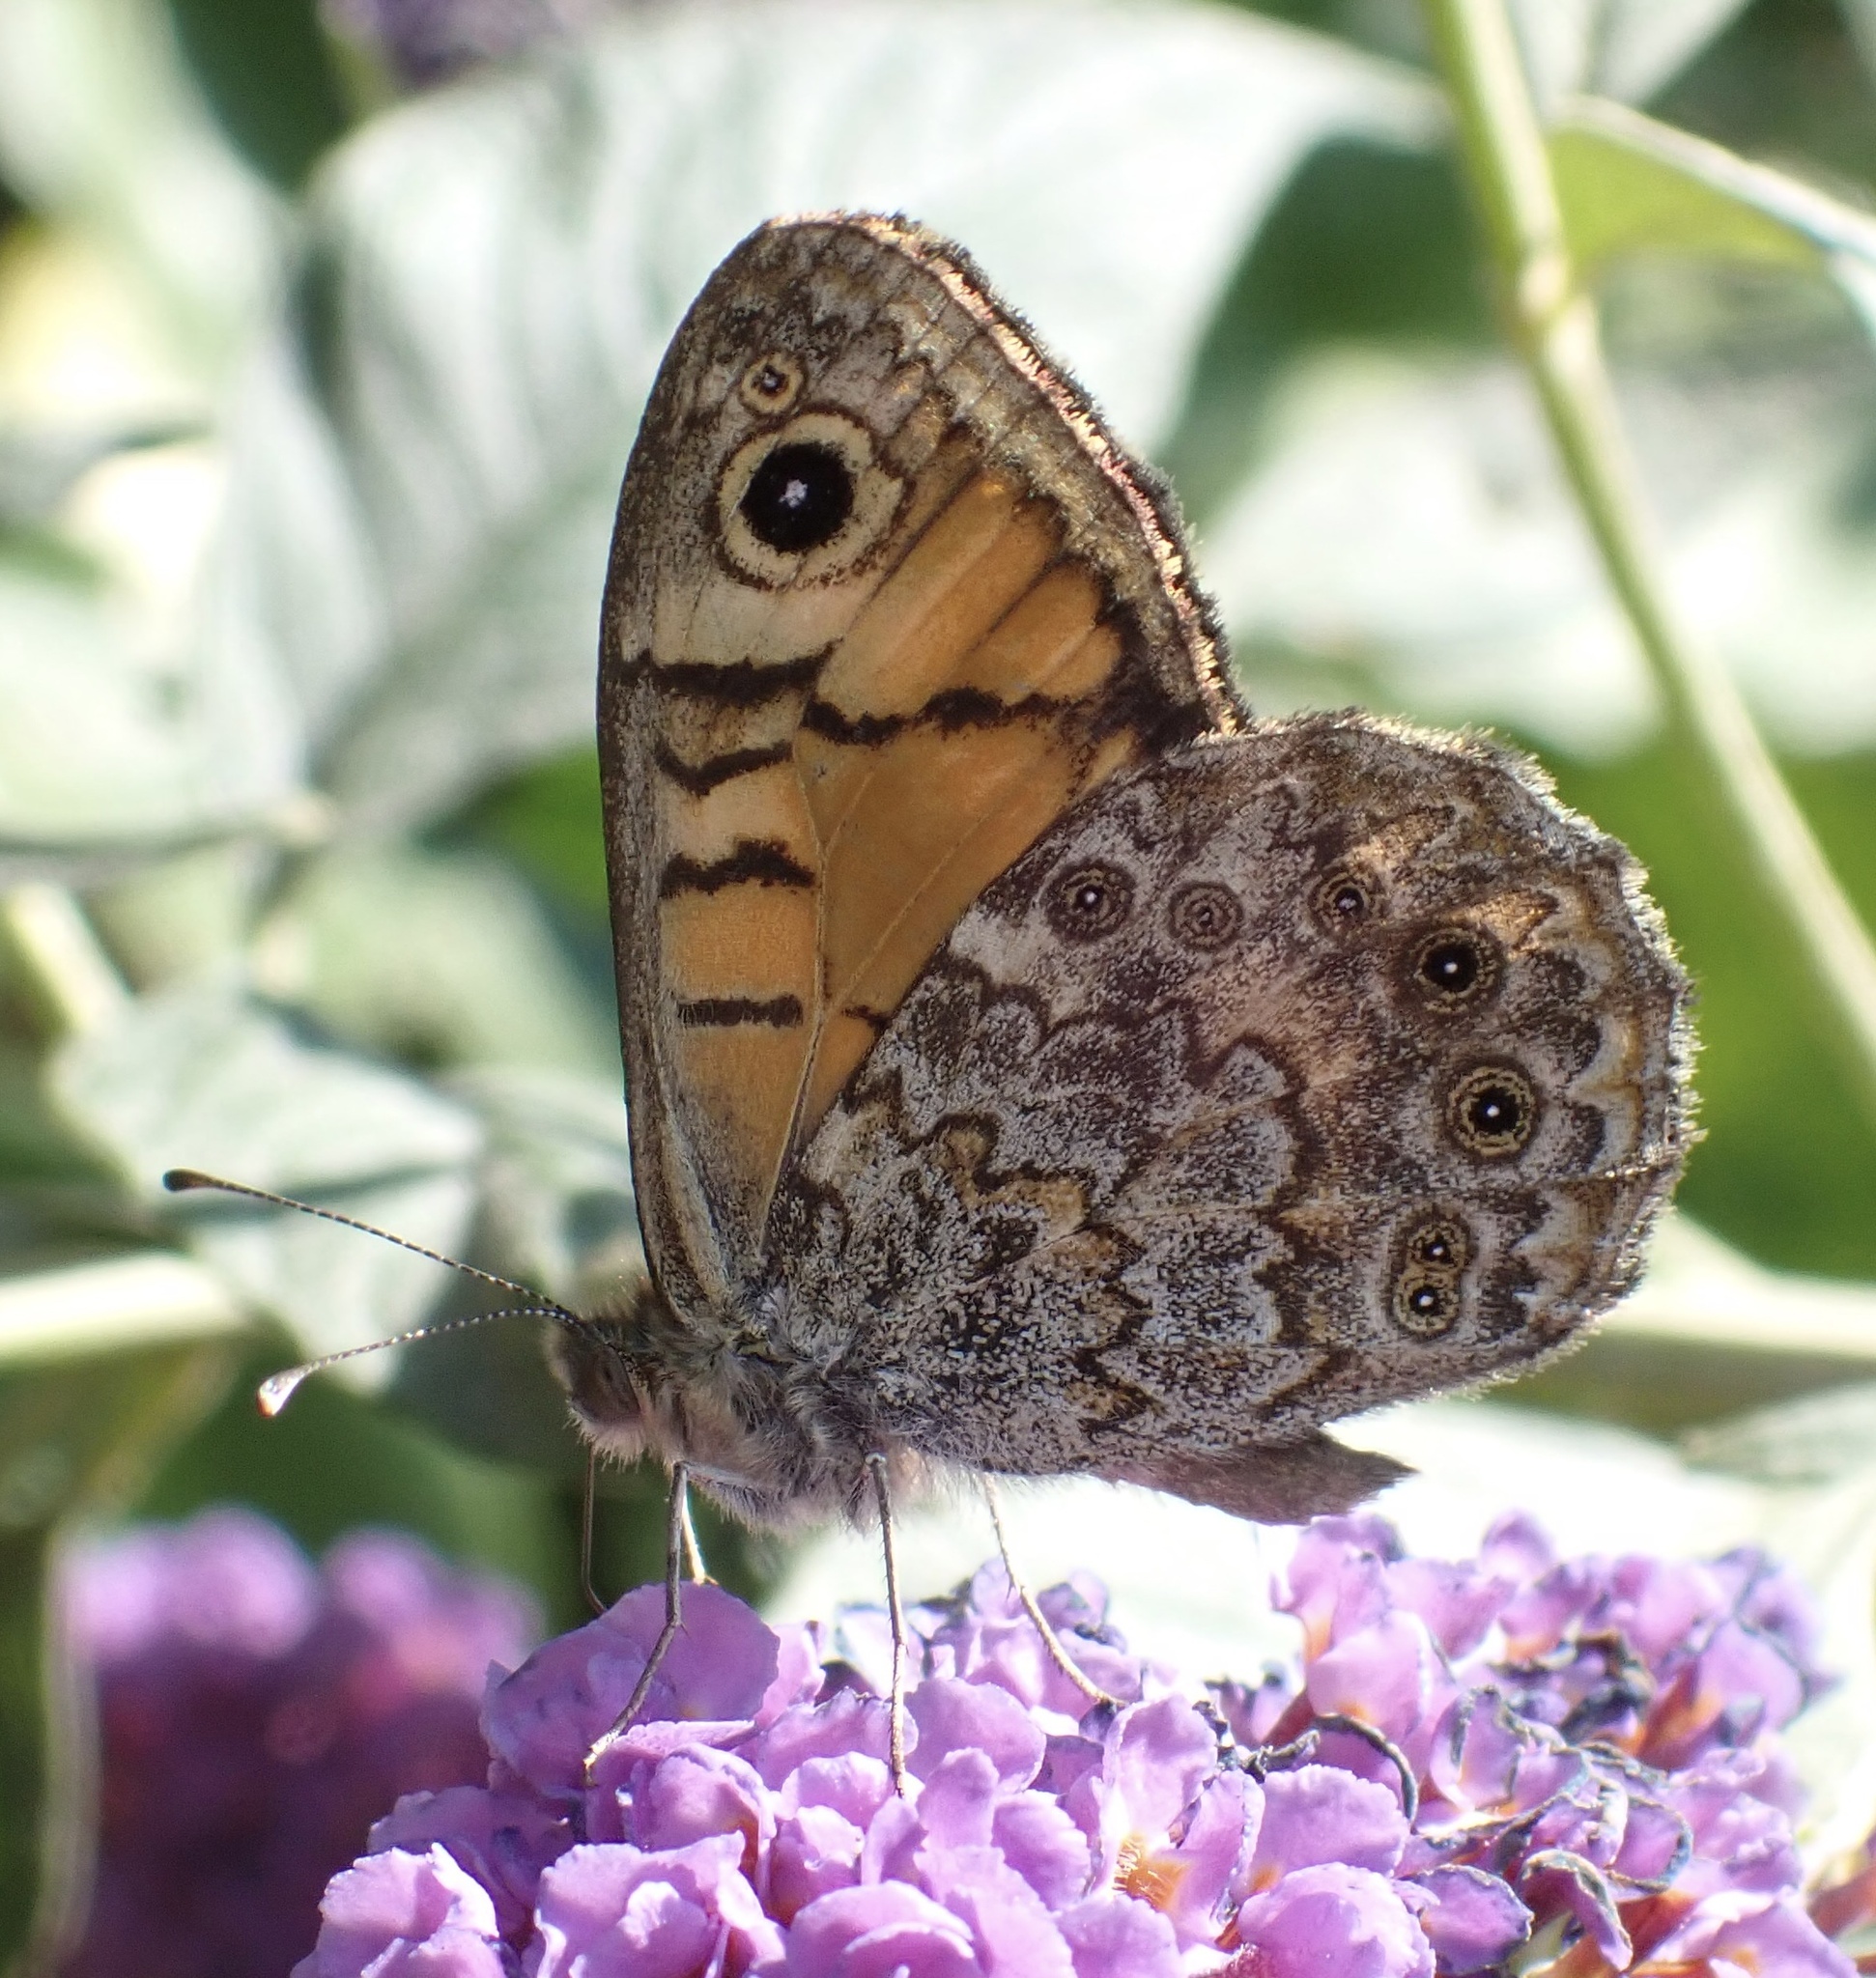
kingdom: Animalia
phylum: Arthropoda
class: Insecta
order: Lepidoptera
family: Nymphalidae
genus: Pararge
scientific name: Pararge Lasiommata megera
